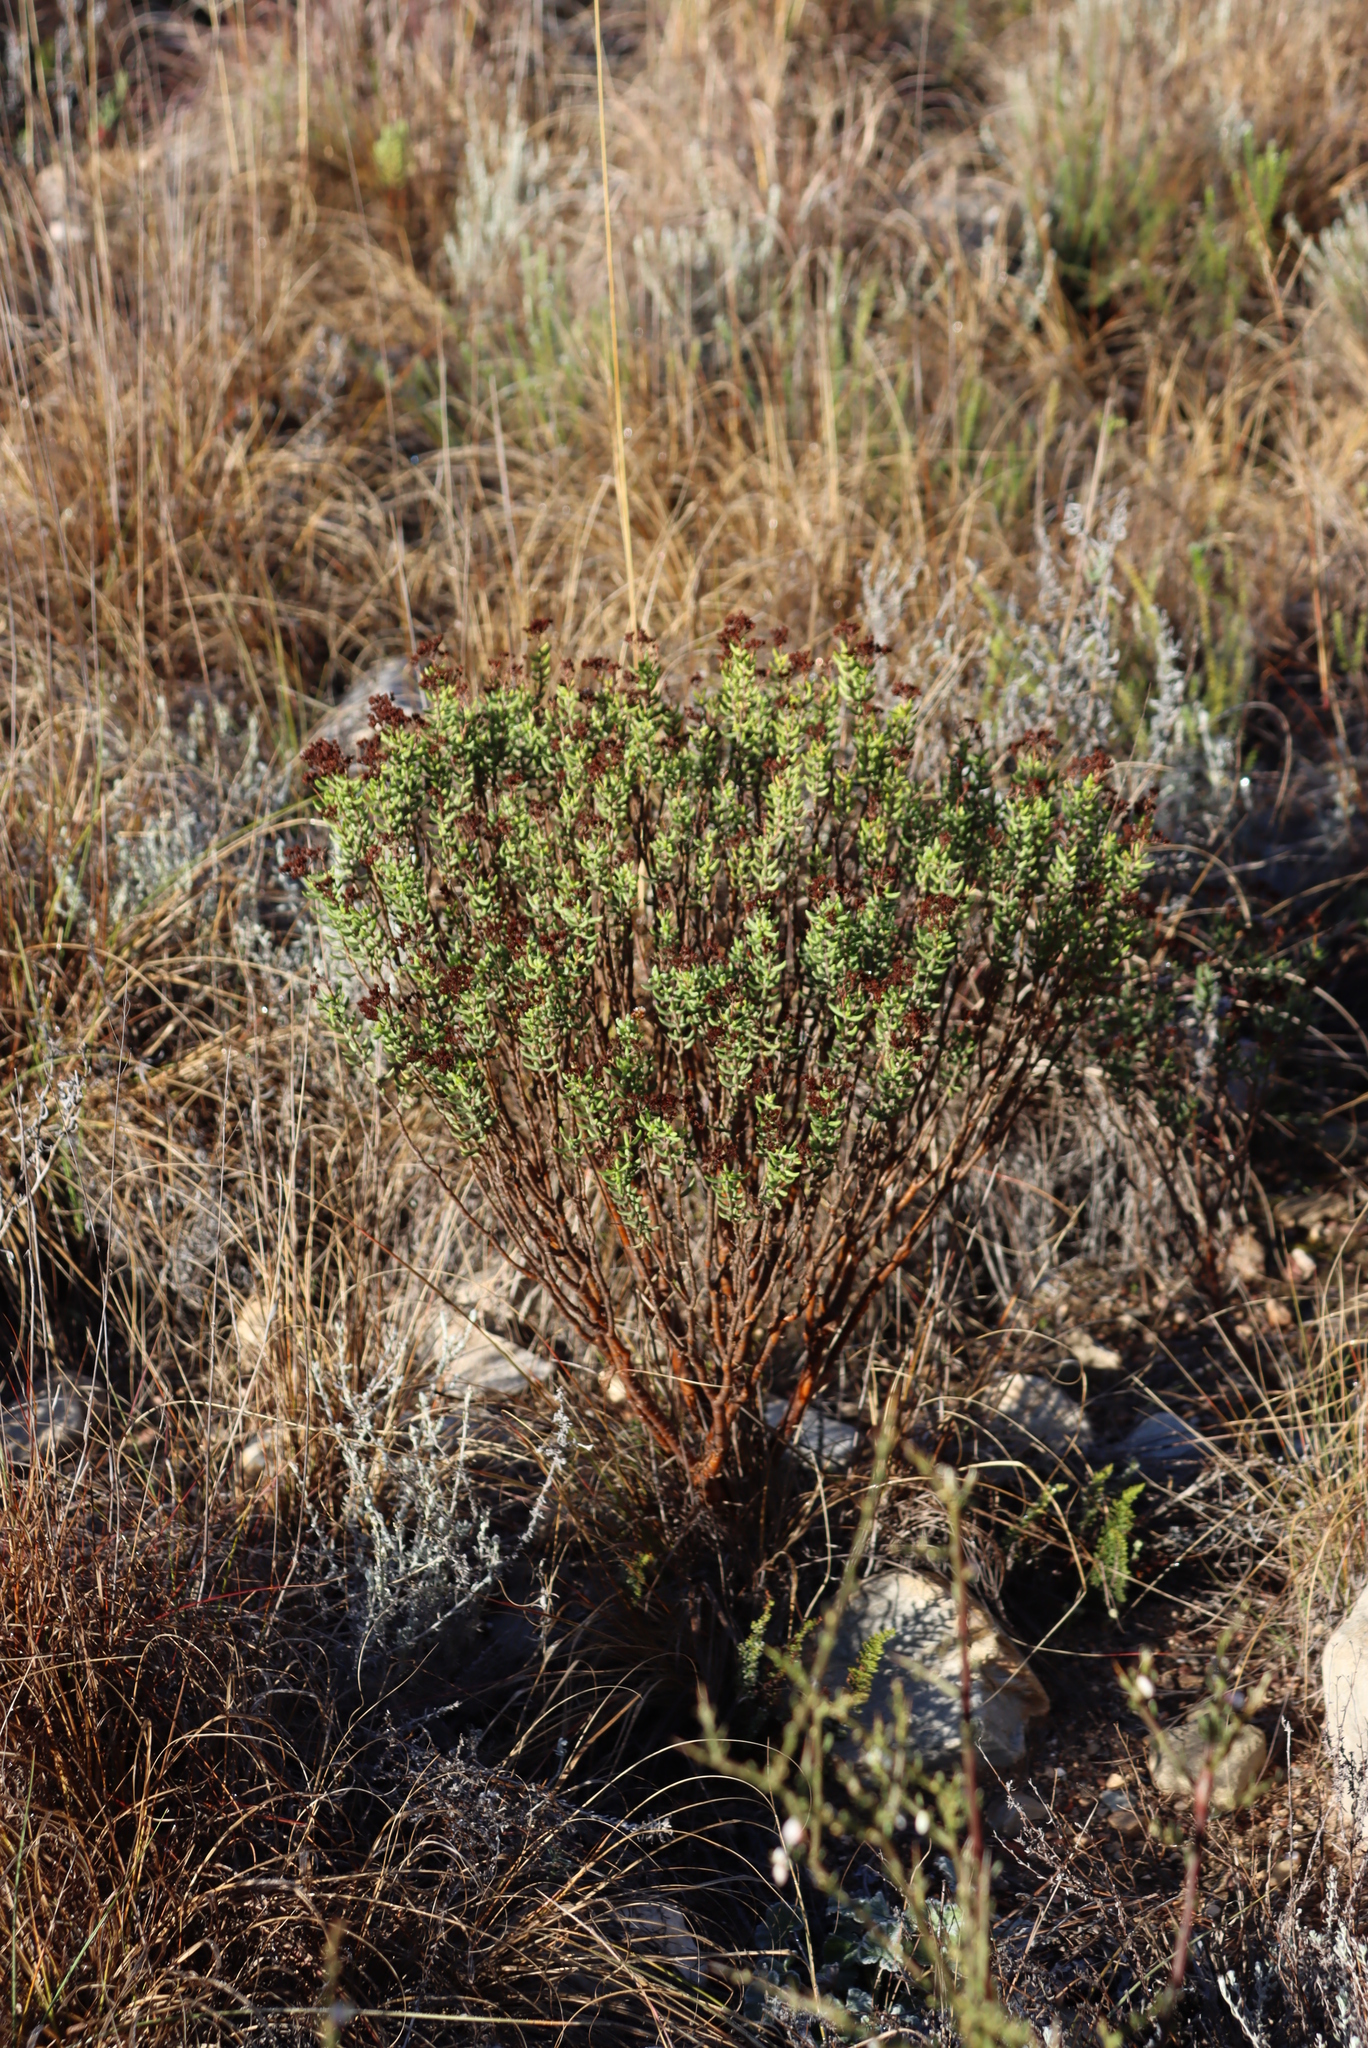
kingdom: Plantae
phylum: Tracheophyta
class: Magnoliopsida
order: Saxifragales
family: Crassulaceae
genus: Crassula
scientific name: Crassula tetragona
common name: Pygmyweed
